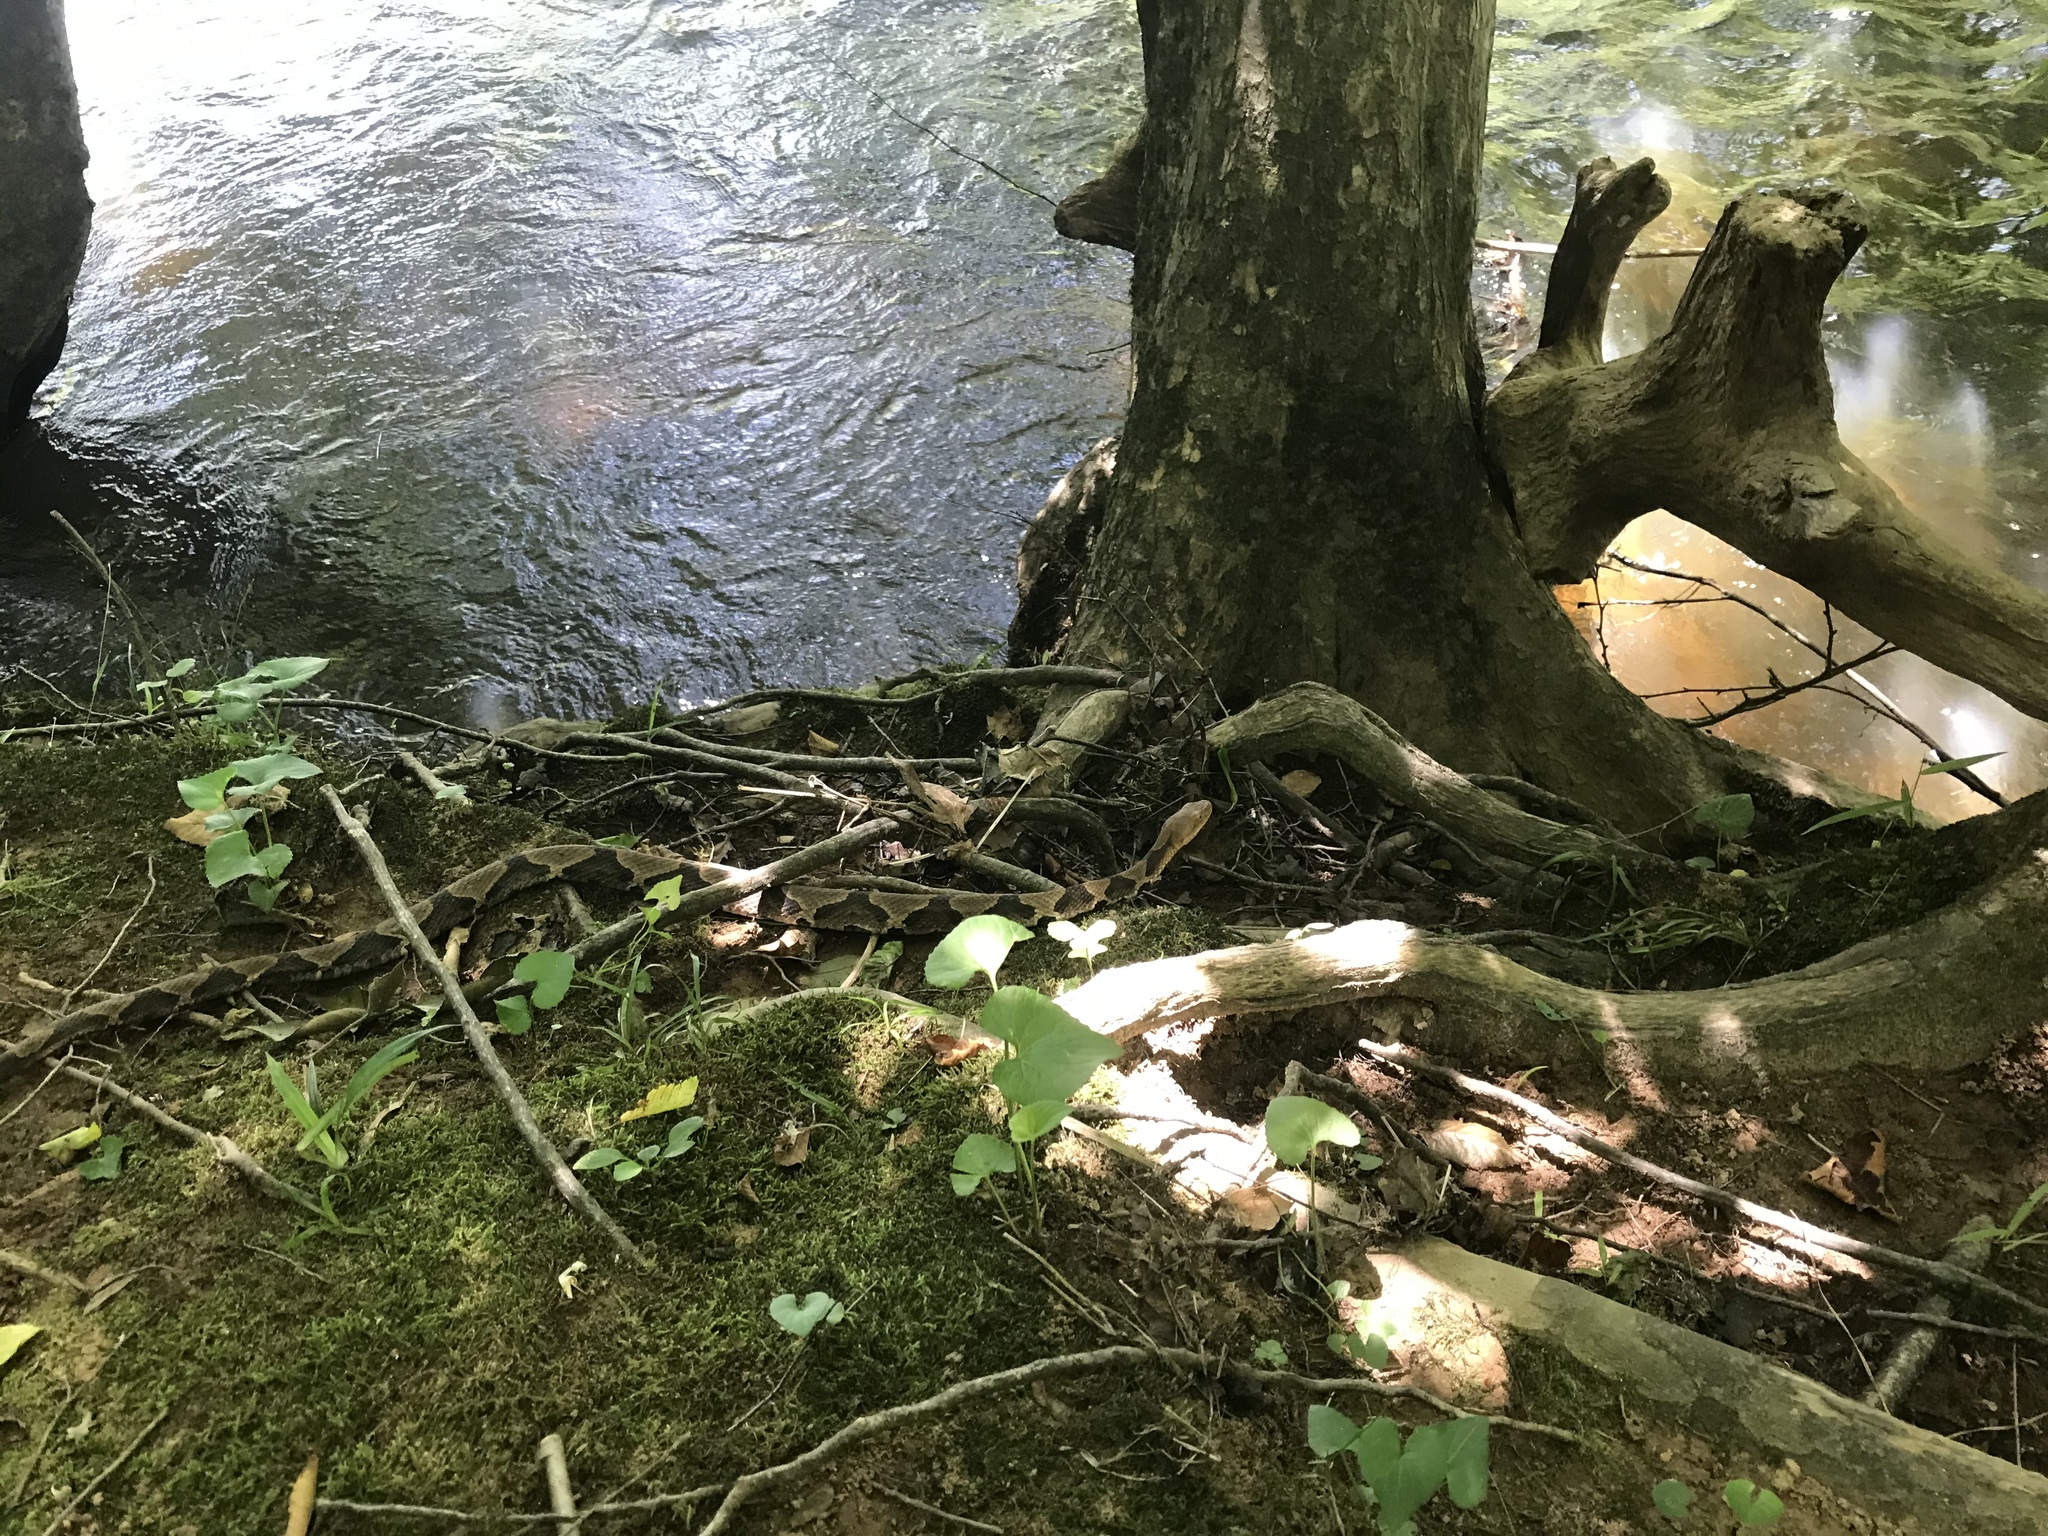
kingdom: Animalia
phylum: Chordata
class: Squamata
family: Viperidae
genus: Agkistrodon
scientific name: Agkistrodon contortrix
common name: Northern copperhead
